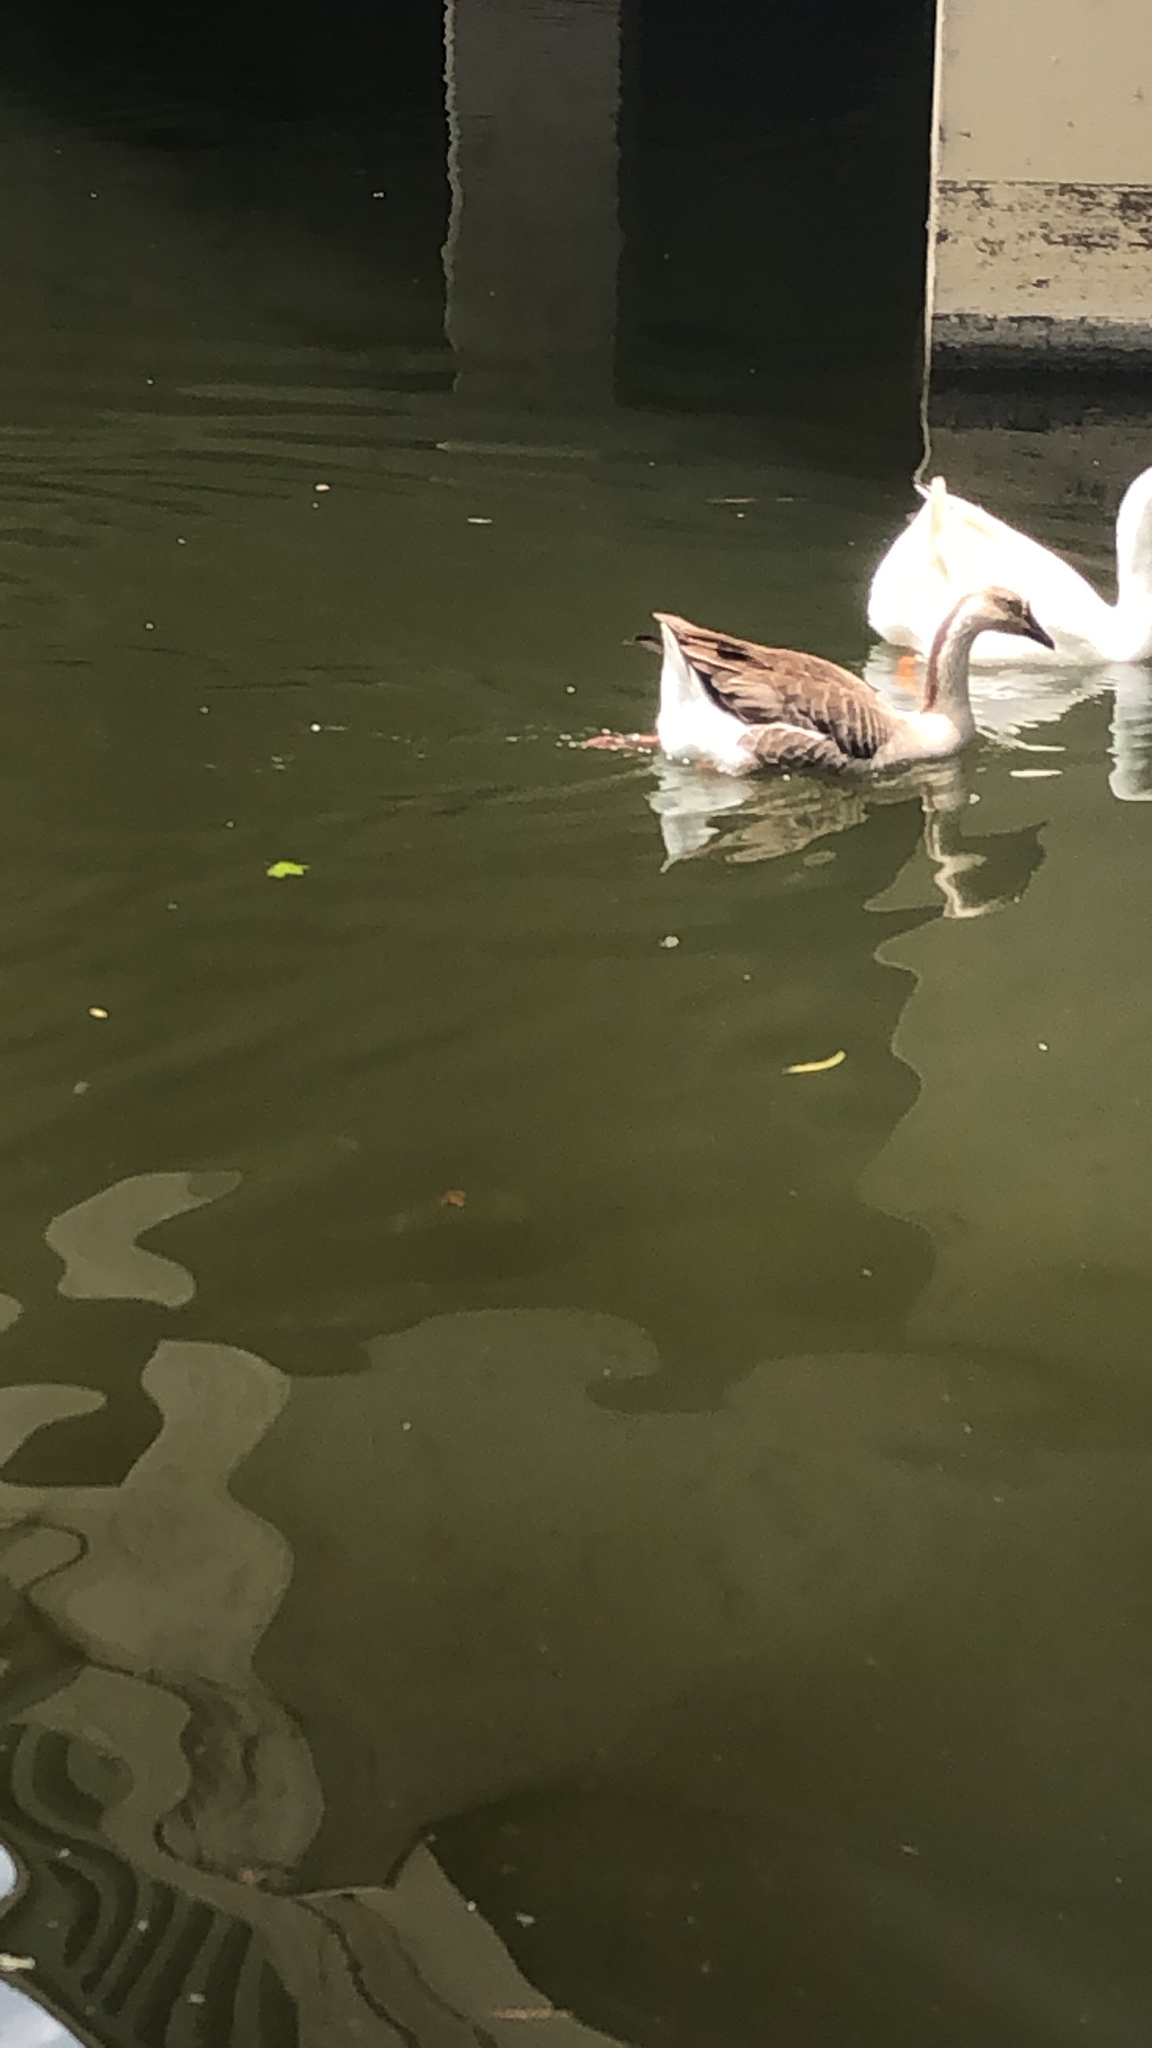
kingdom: Animalia
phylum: Chordata
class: Aves
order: Anseriformes
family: Anatidae
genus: Anser
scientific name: Anser cygnoides
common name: Swan goose
